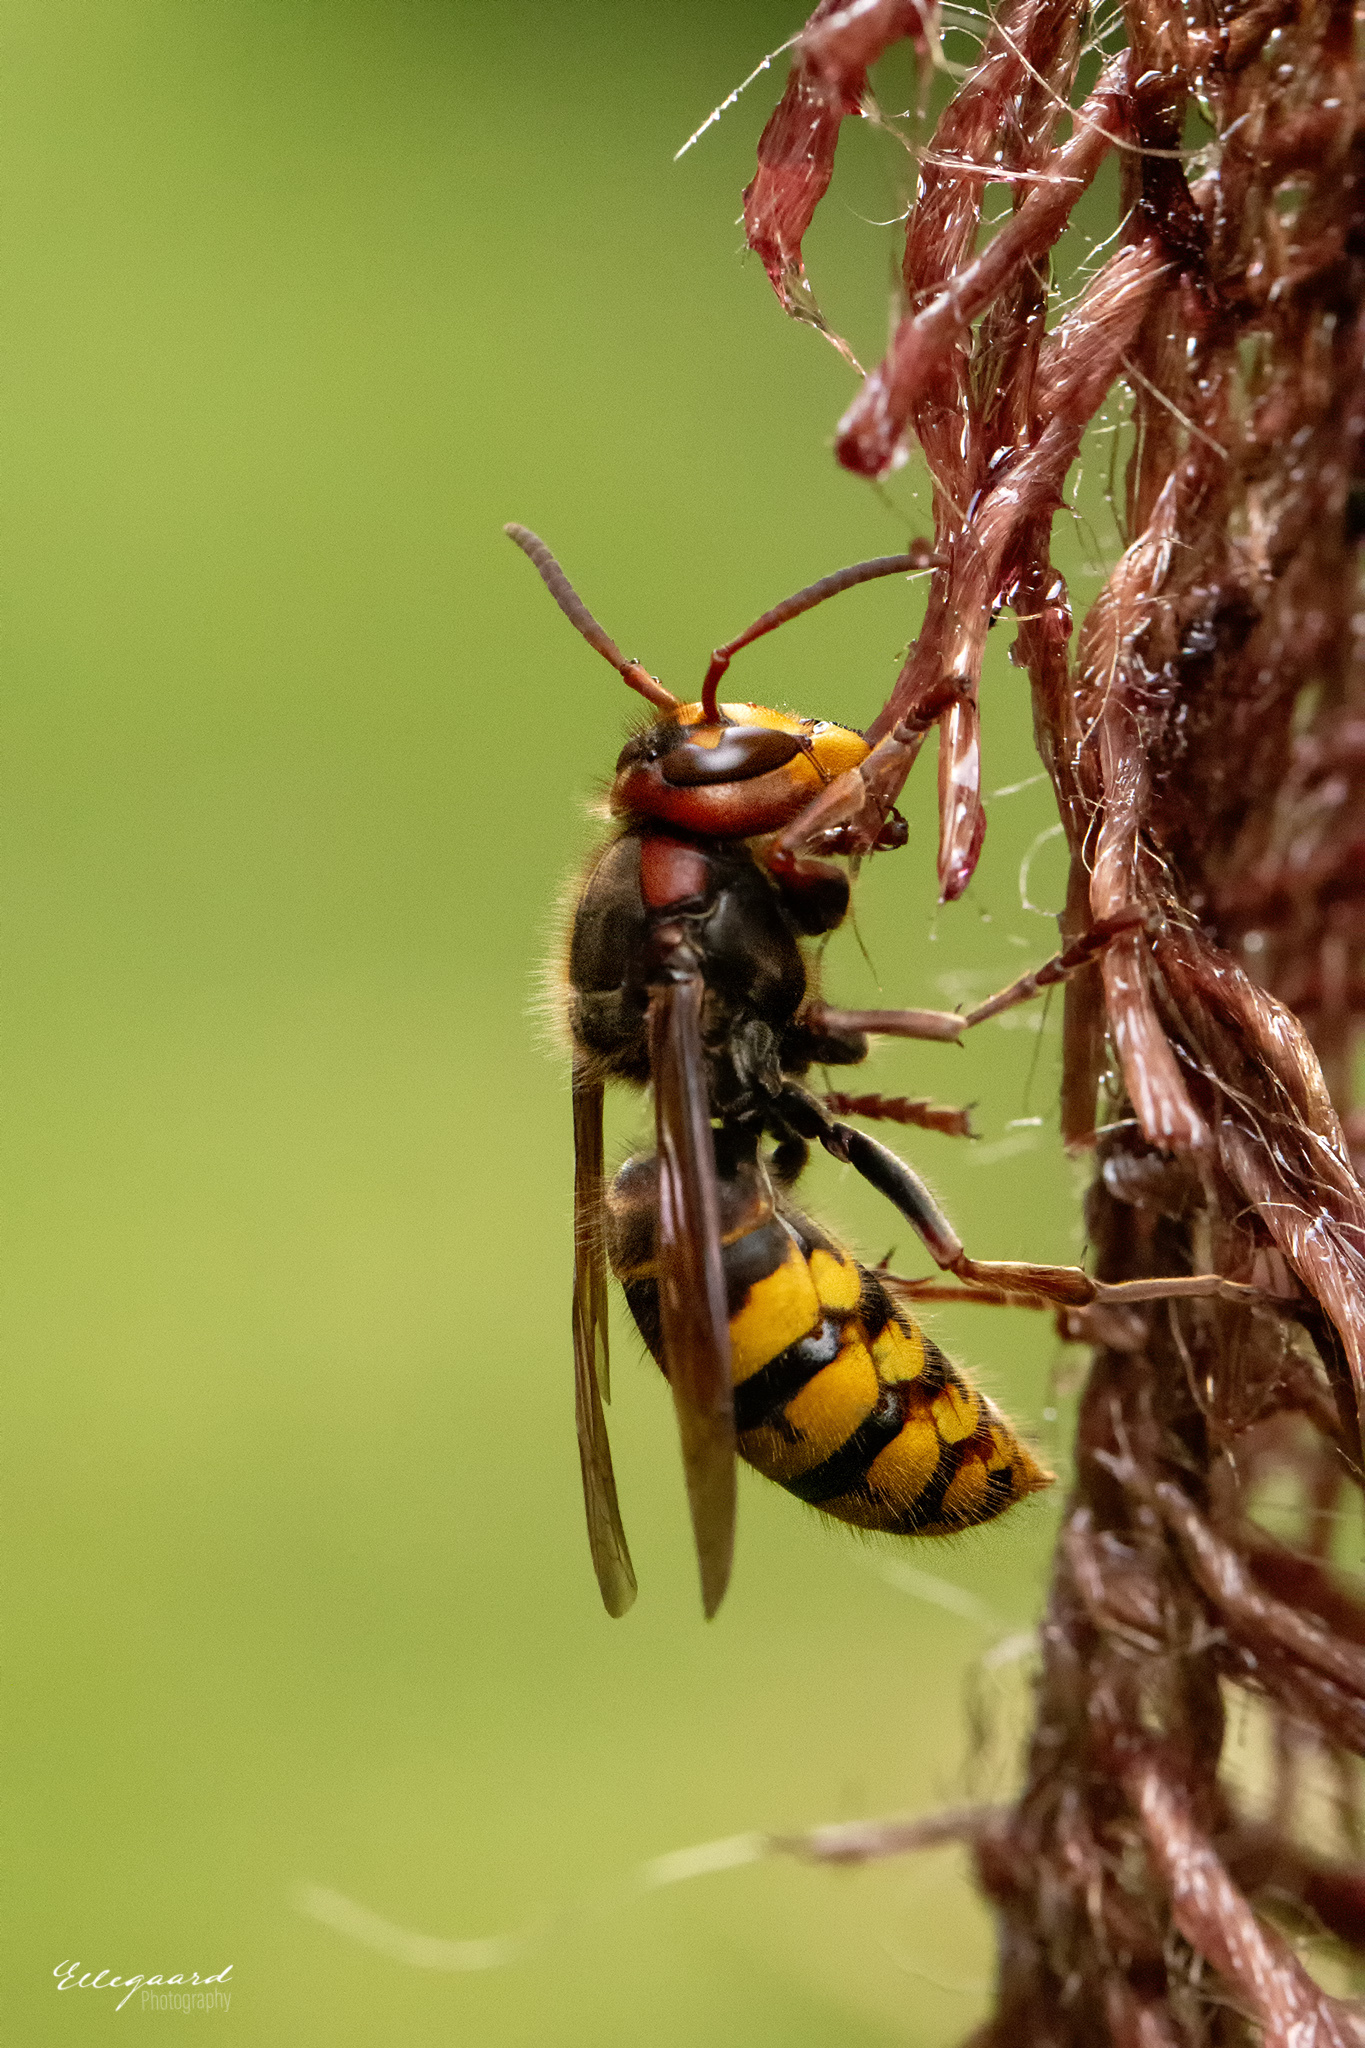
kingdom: Animalia
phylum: Arthropoda
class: Insecta
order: Hymenoptera
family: Vespidae
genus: Vespa
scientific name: Vespa crabro
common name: Hornet
